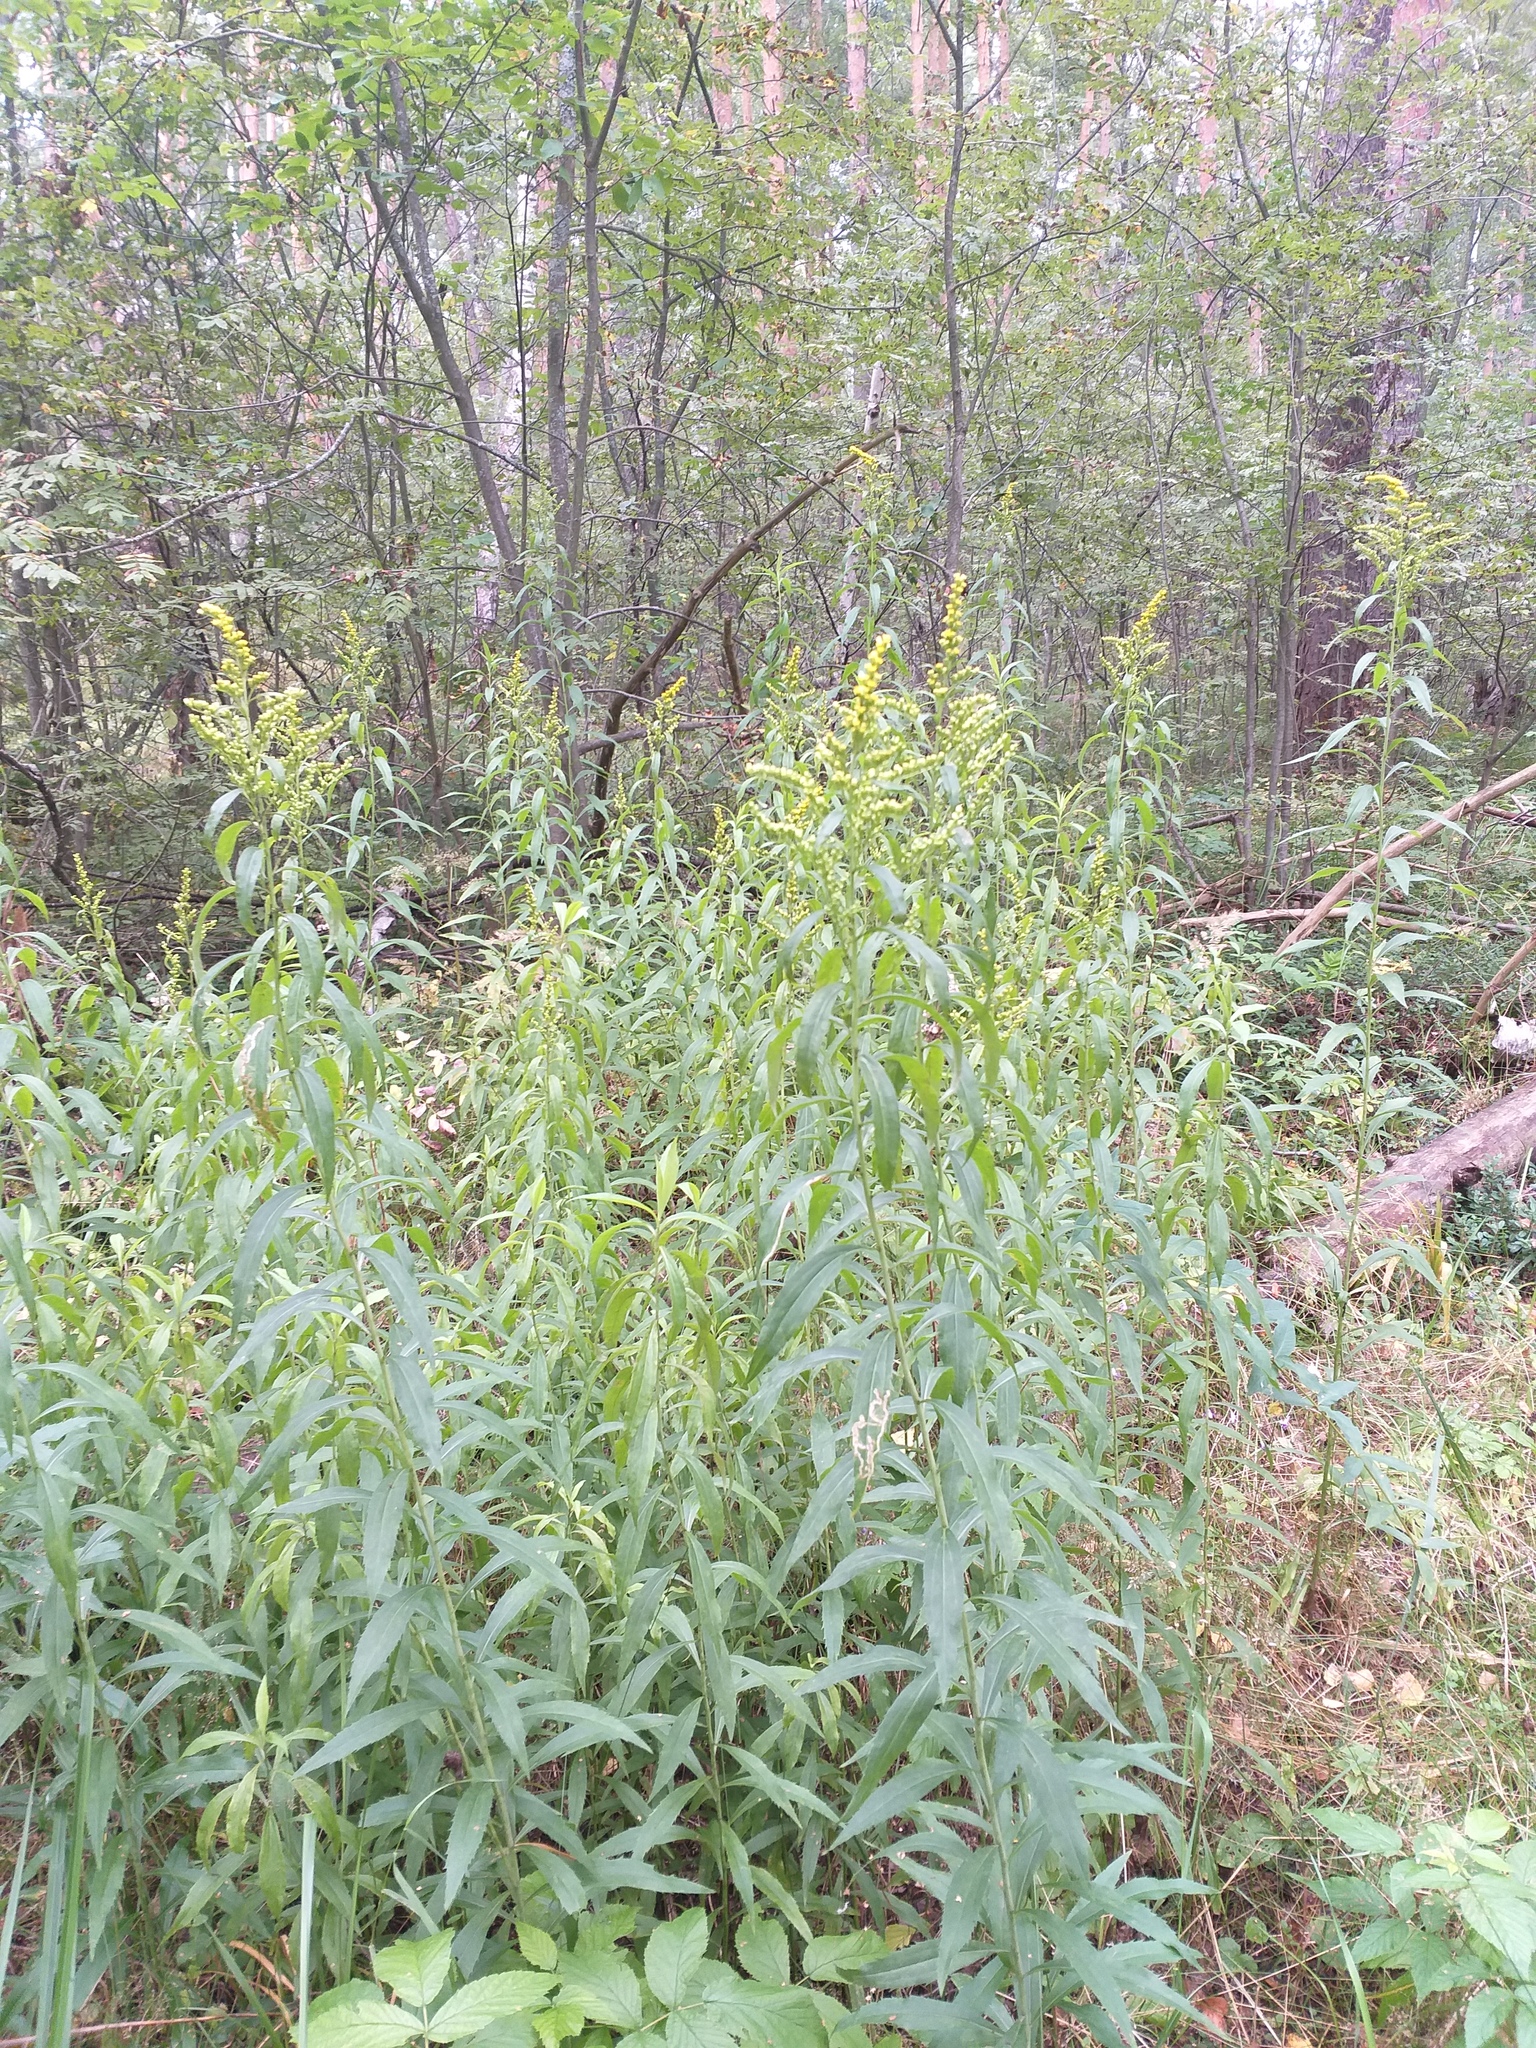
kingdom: Plantae
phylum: Tracheophyta
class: Magnoliopsida
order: Asterales
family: Asteraceae
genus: Solidago
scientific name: Solidago gigantea
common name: Giant goldenrod
